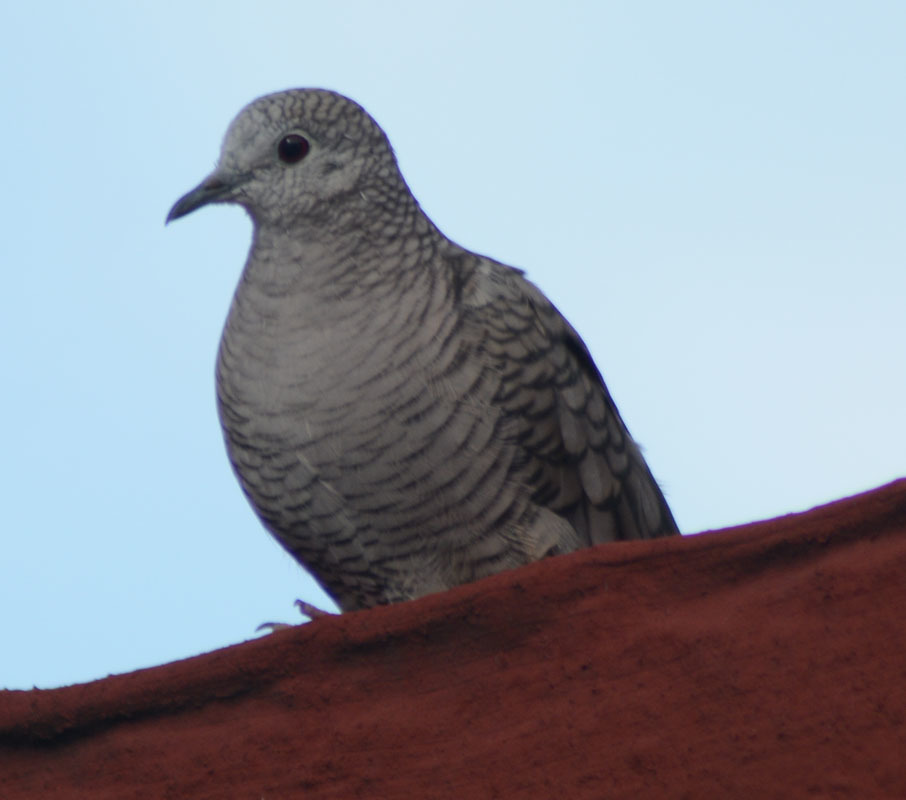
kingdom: Animalia
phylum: Chordata
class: Aves
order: Columbiformes
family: Columbidae
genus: Columbina
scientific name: Columbina inca
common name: Inca dove
